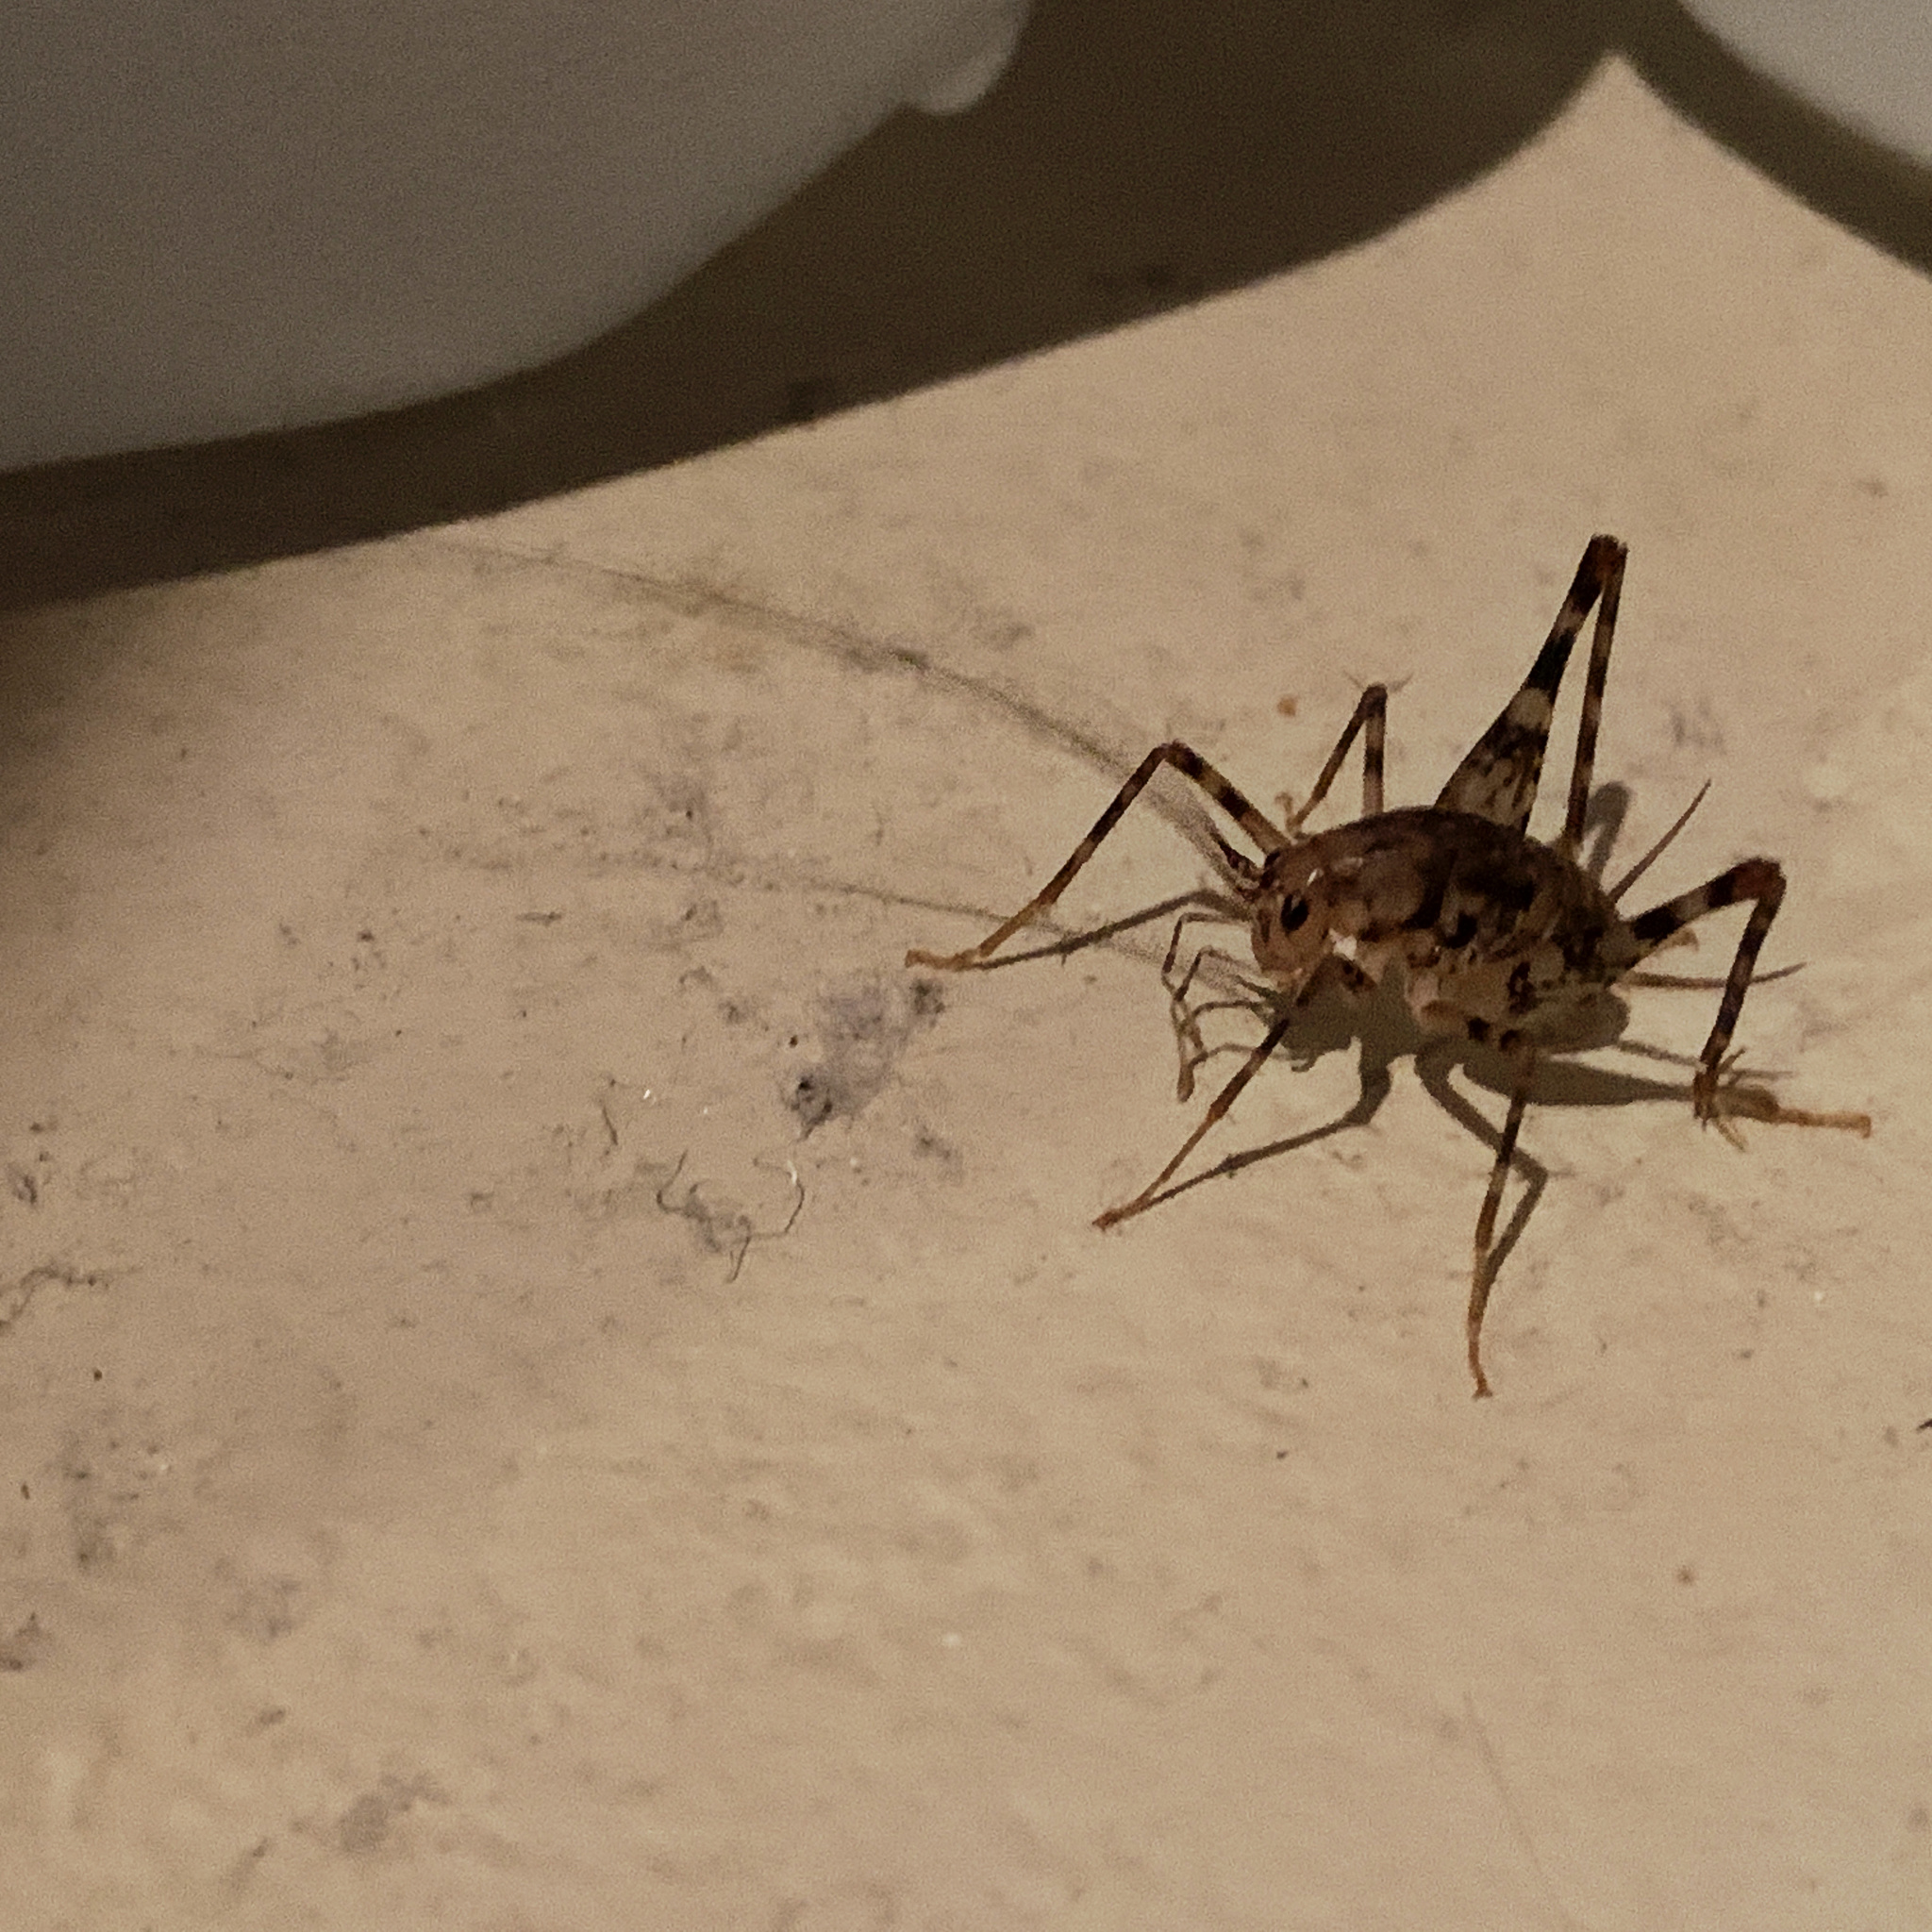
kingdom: Animalia
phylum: Arthropoda
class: Insecta
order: Orthoptera
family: Rhaphidophoridae
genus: Tachycines
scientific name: Tachycines asynamorus
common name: Greenhouse camel cricket
